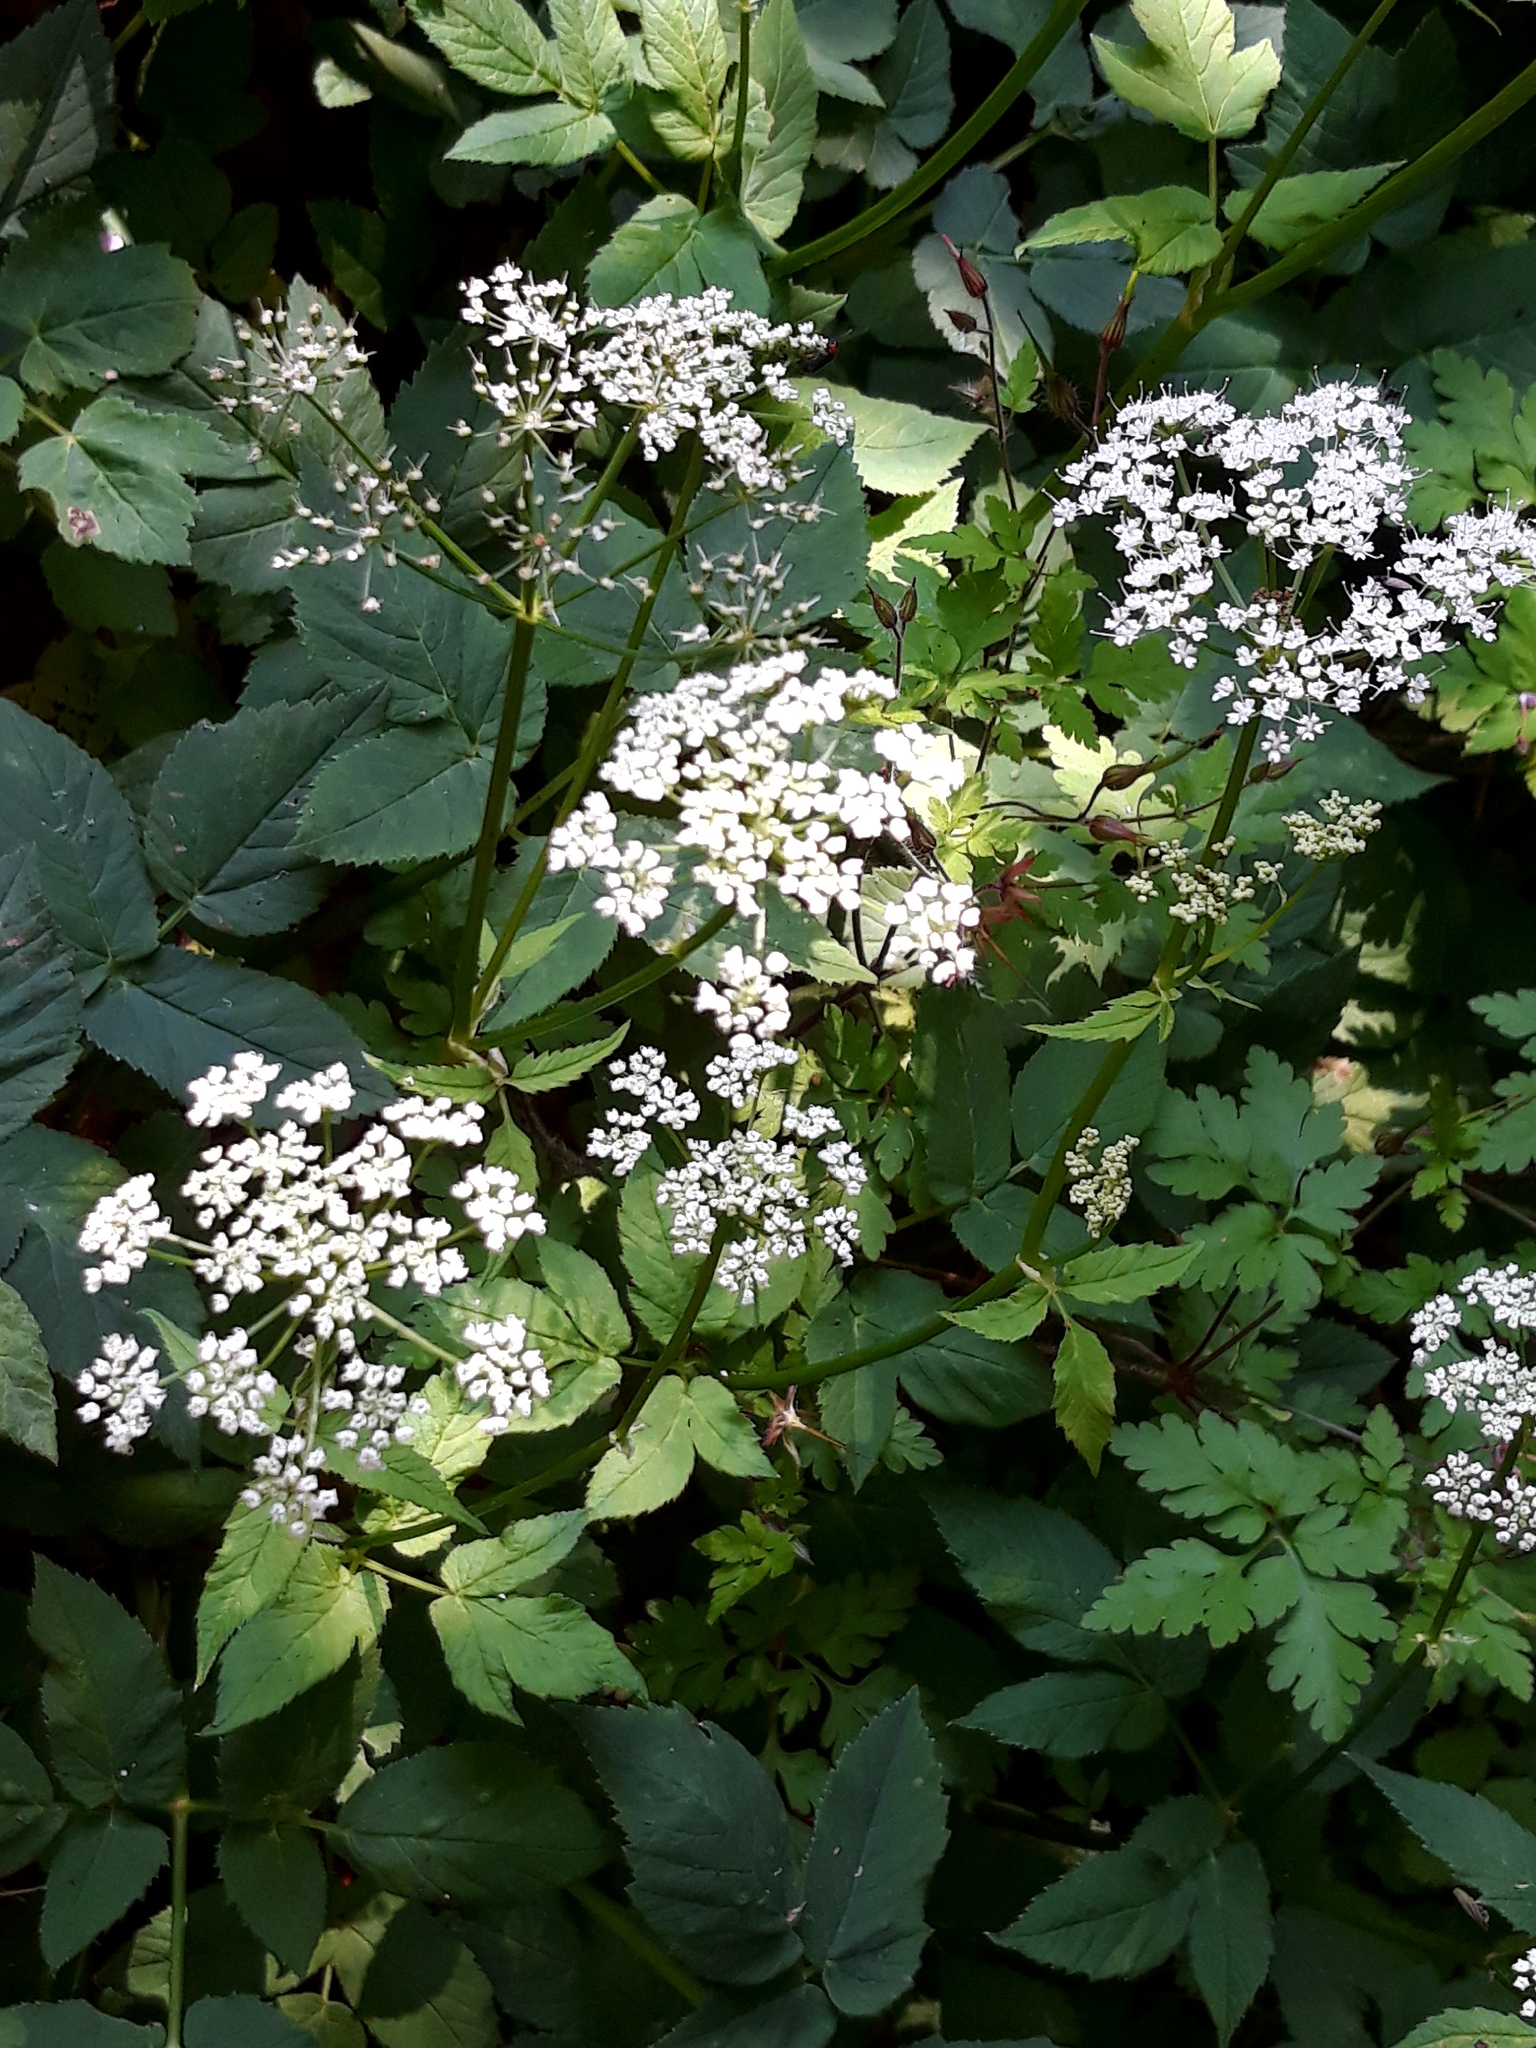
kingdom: Plantae
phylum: Tracheophyta
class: Magnoliopsida
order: Apiales
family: Apiaceae
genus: Aegopodium
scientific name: Aegopodium podagraria
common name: Ground-elder
